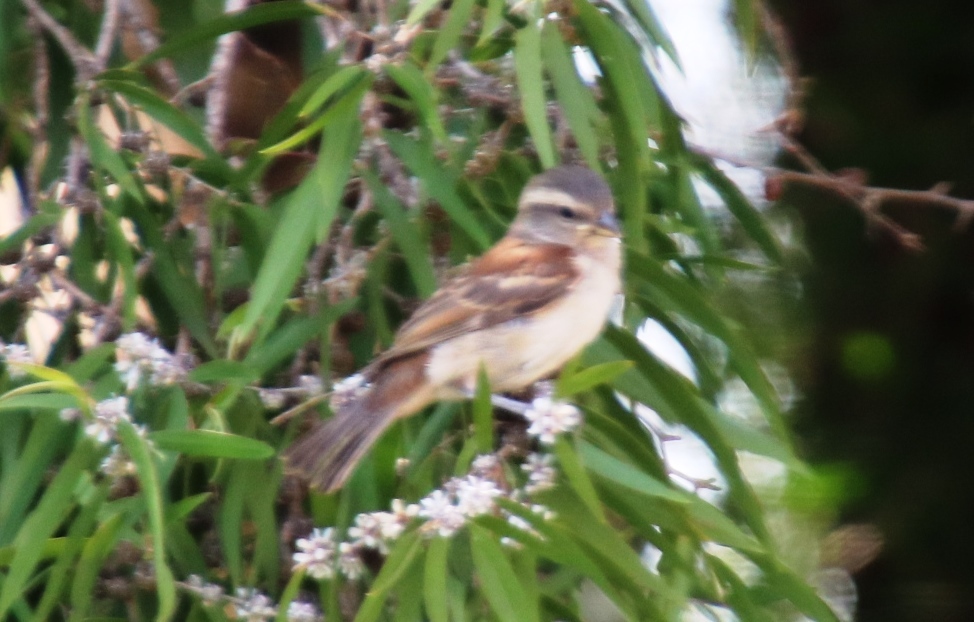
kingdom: Animalia
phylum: Chordata
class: Aves
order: Passeriformes
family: Passeridae
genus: Passer
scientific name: Passer melanurus
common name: Cape sparrow
